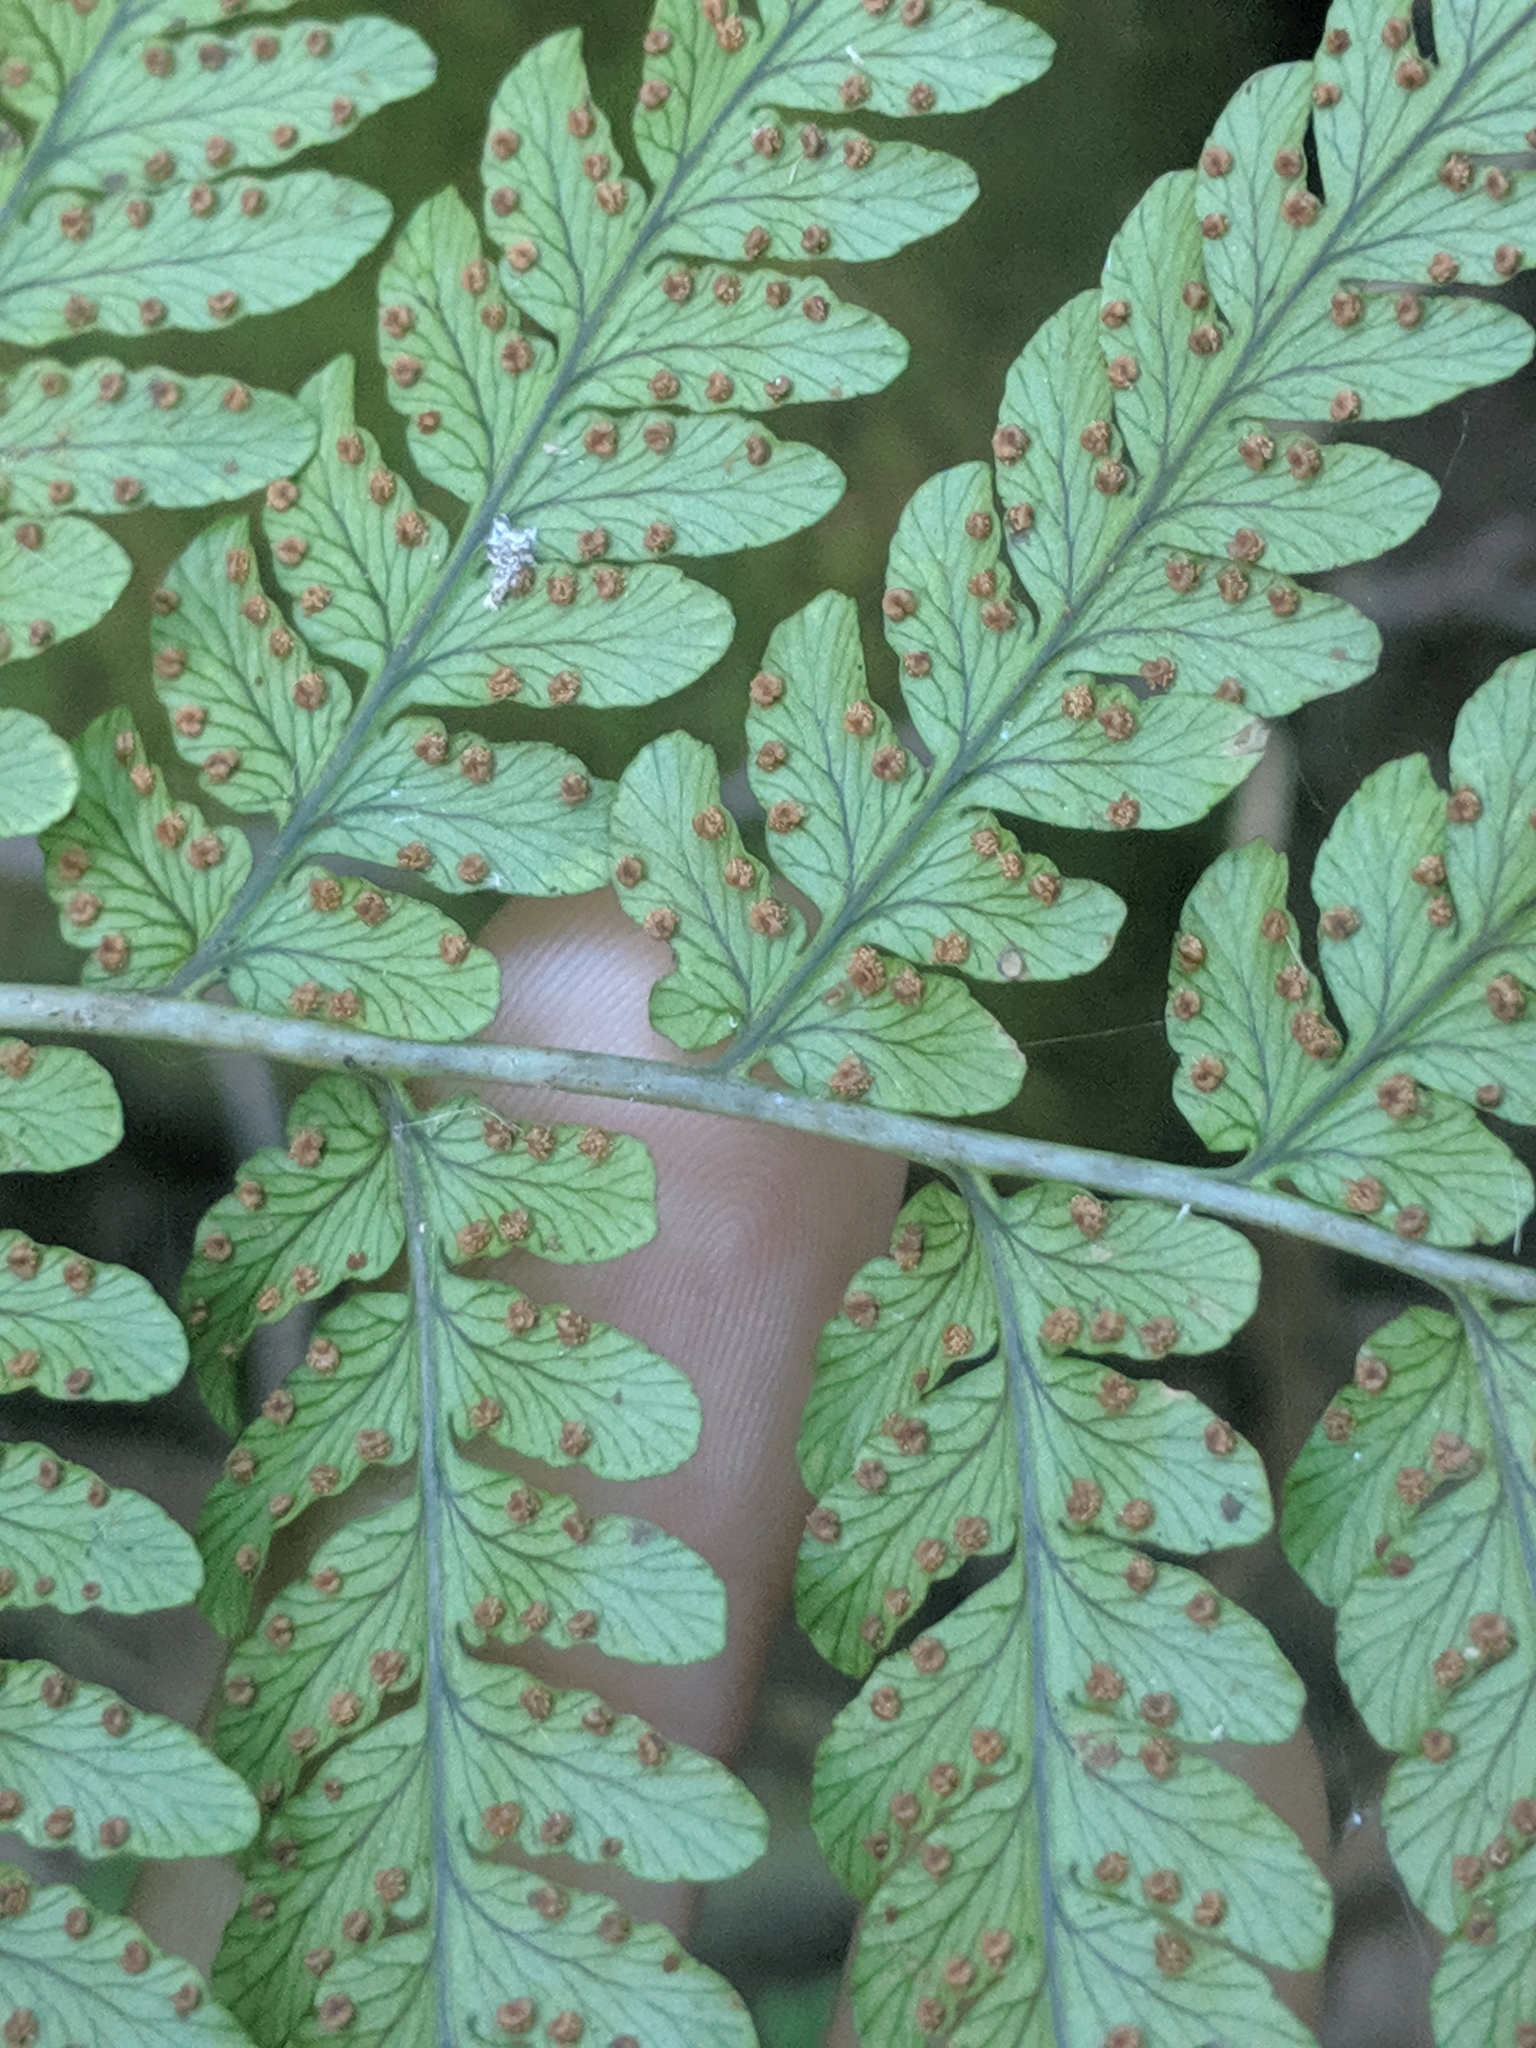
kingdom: Plantae
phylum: Tracheophyta
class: Polypodiopsida
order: Polypodiales
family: Dryopteridaceae
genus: Dryopteris
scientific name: Dryopteris marginalis
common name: Marginal wood fern
